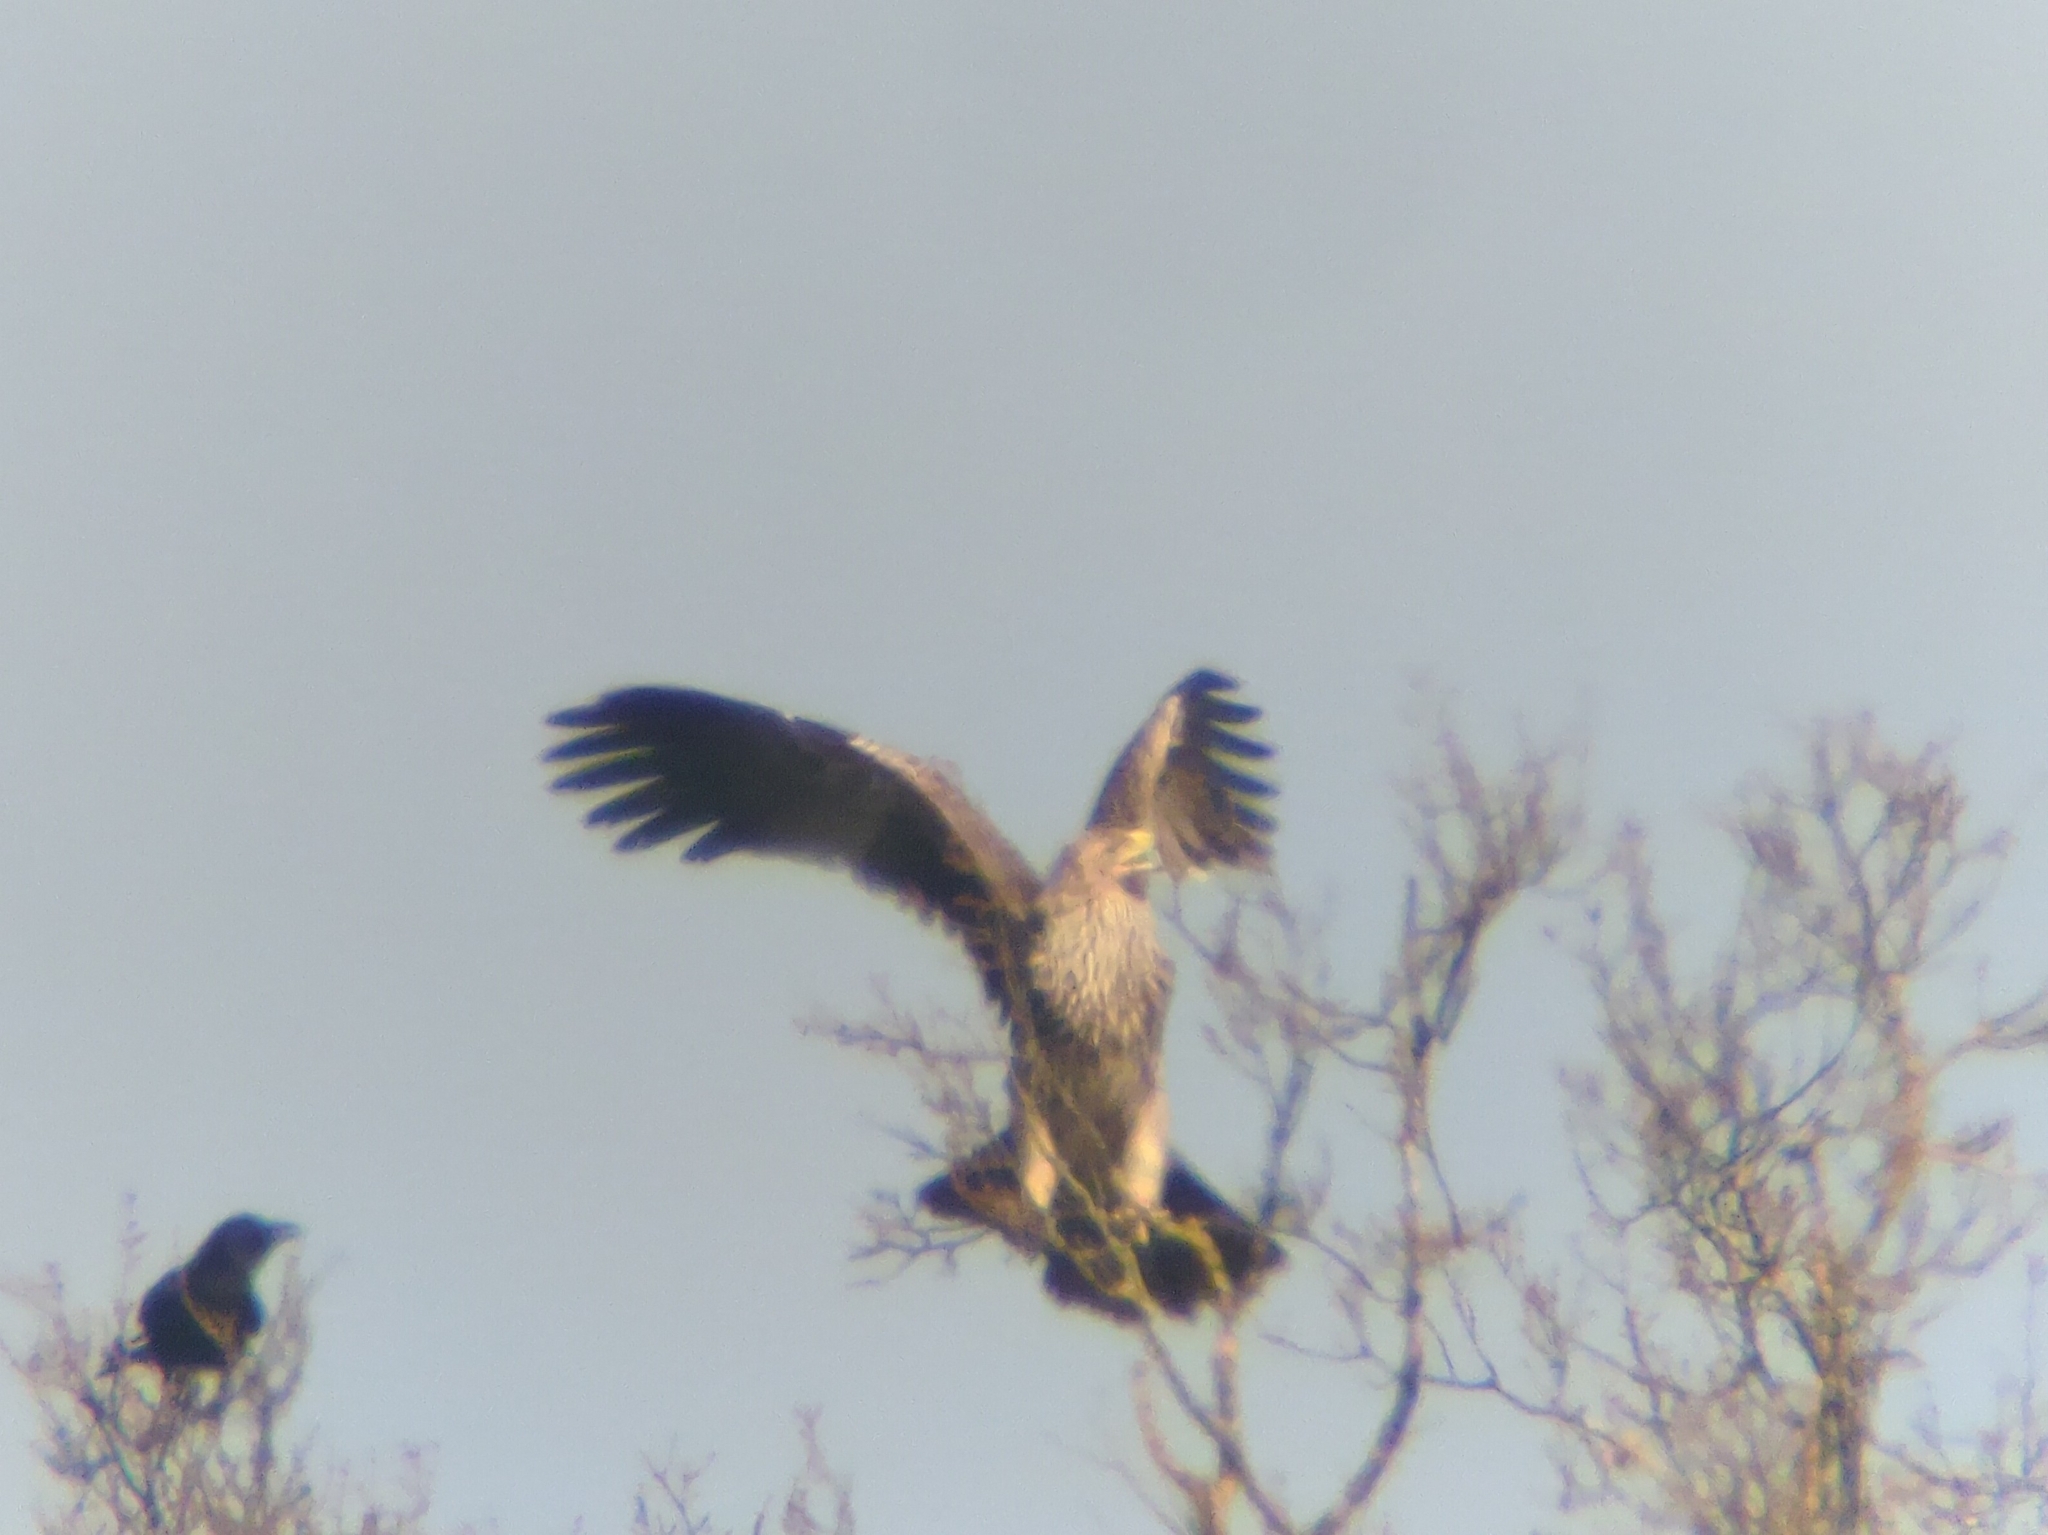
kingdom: Animalia
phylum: Chordata
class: Aves
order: Accipitriformes
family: Accipitridae
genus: Aquila
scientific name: Aquila heliaca
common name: Eastern imperial eagle
